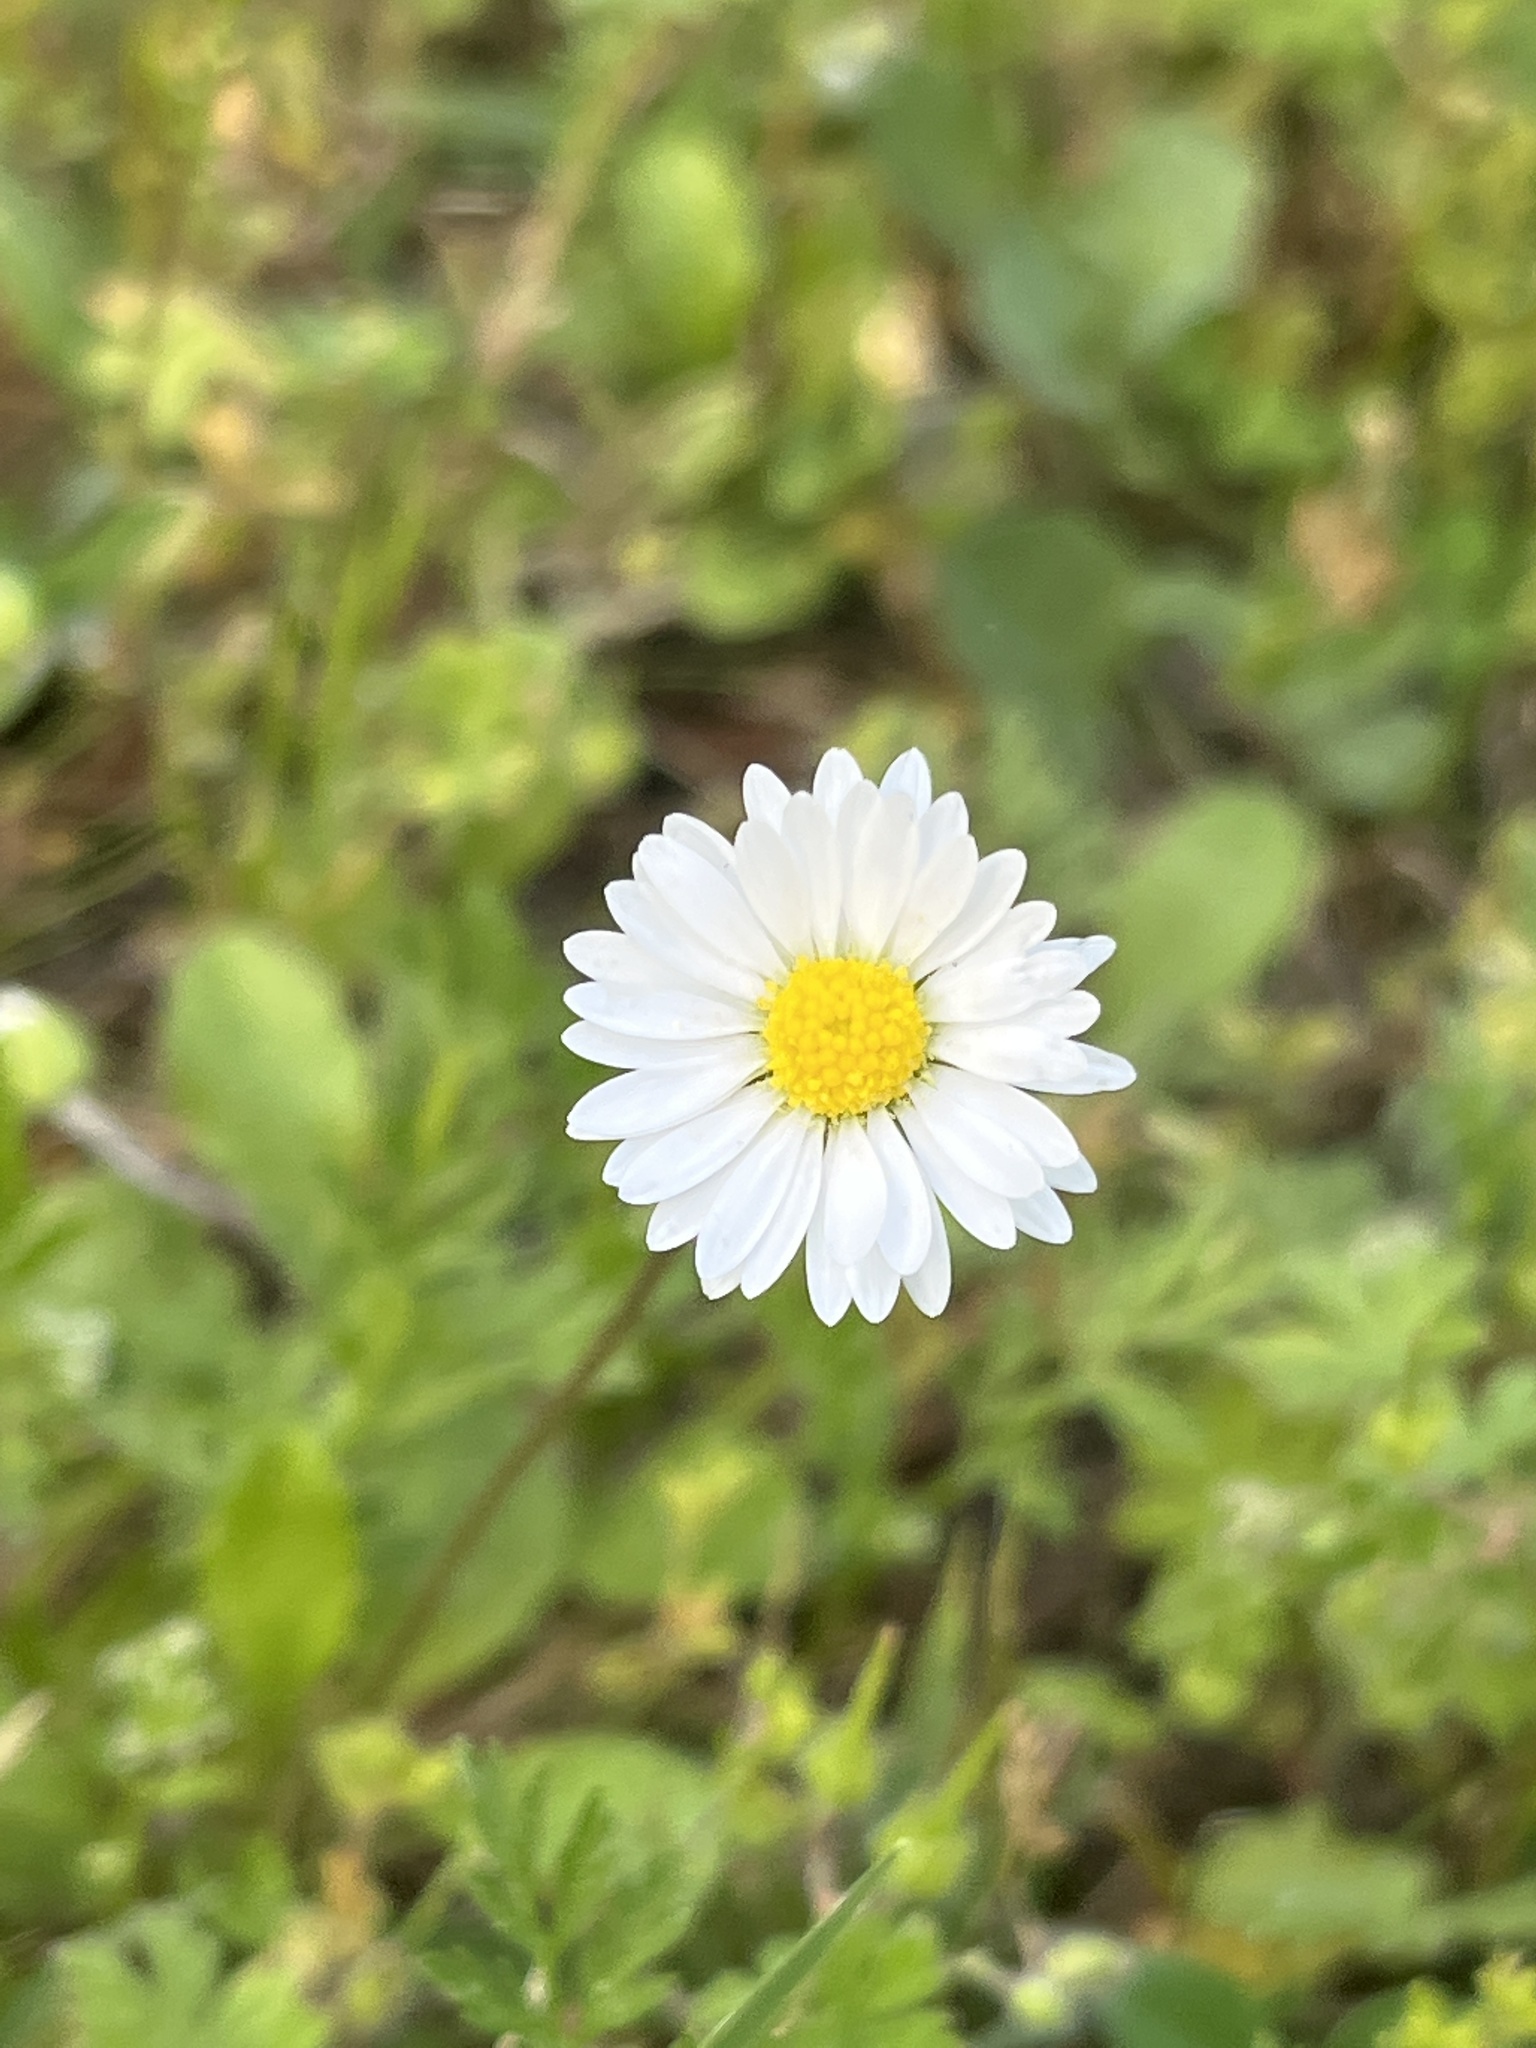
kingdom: Plantae
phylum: Tracheophyta
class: Magnoliopsida
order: Asterales
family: Asteraceae
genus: Bellis
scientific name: Bellis perennis
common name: Lawndaisy
